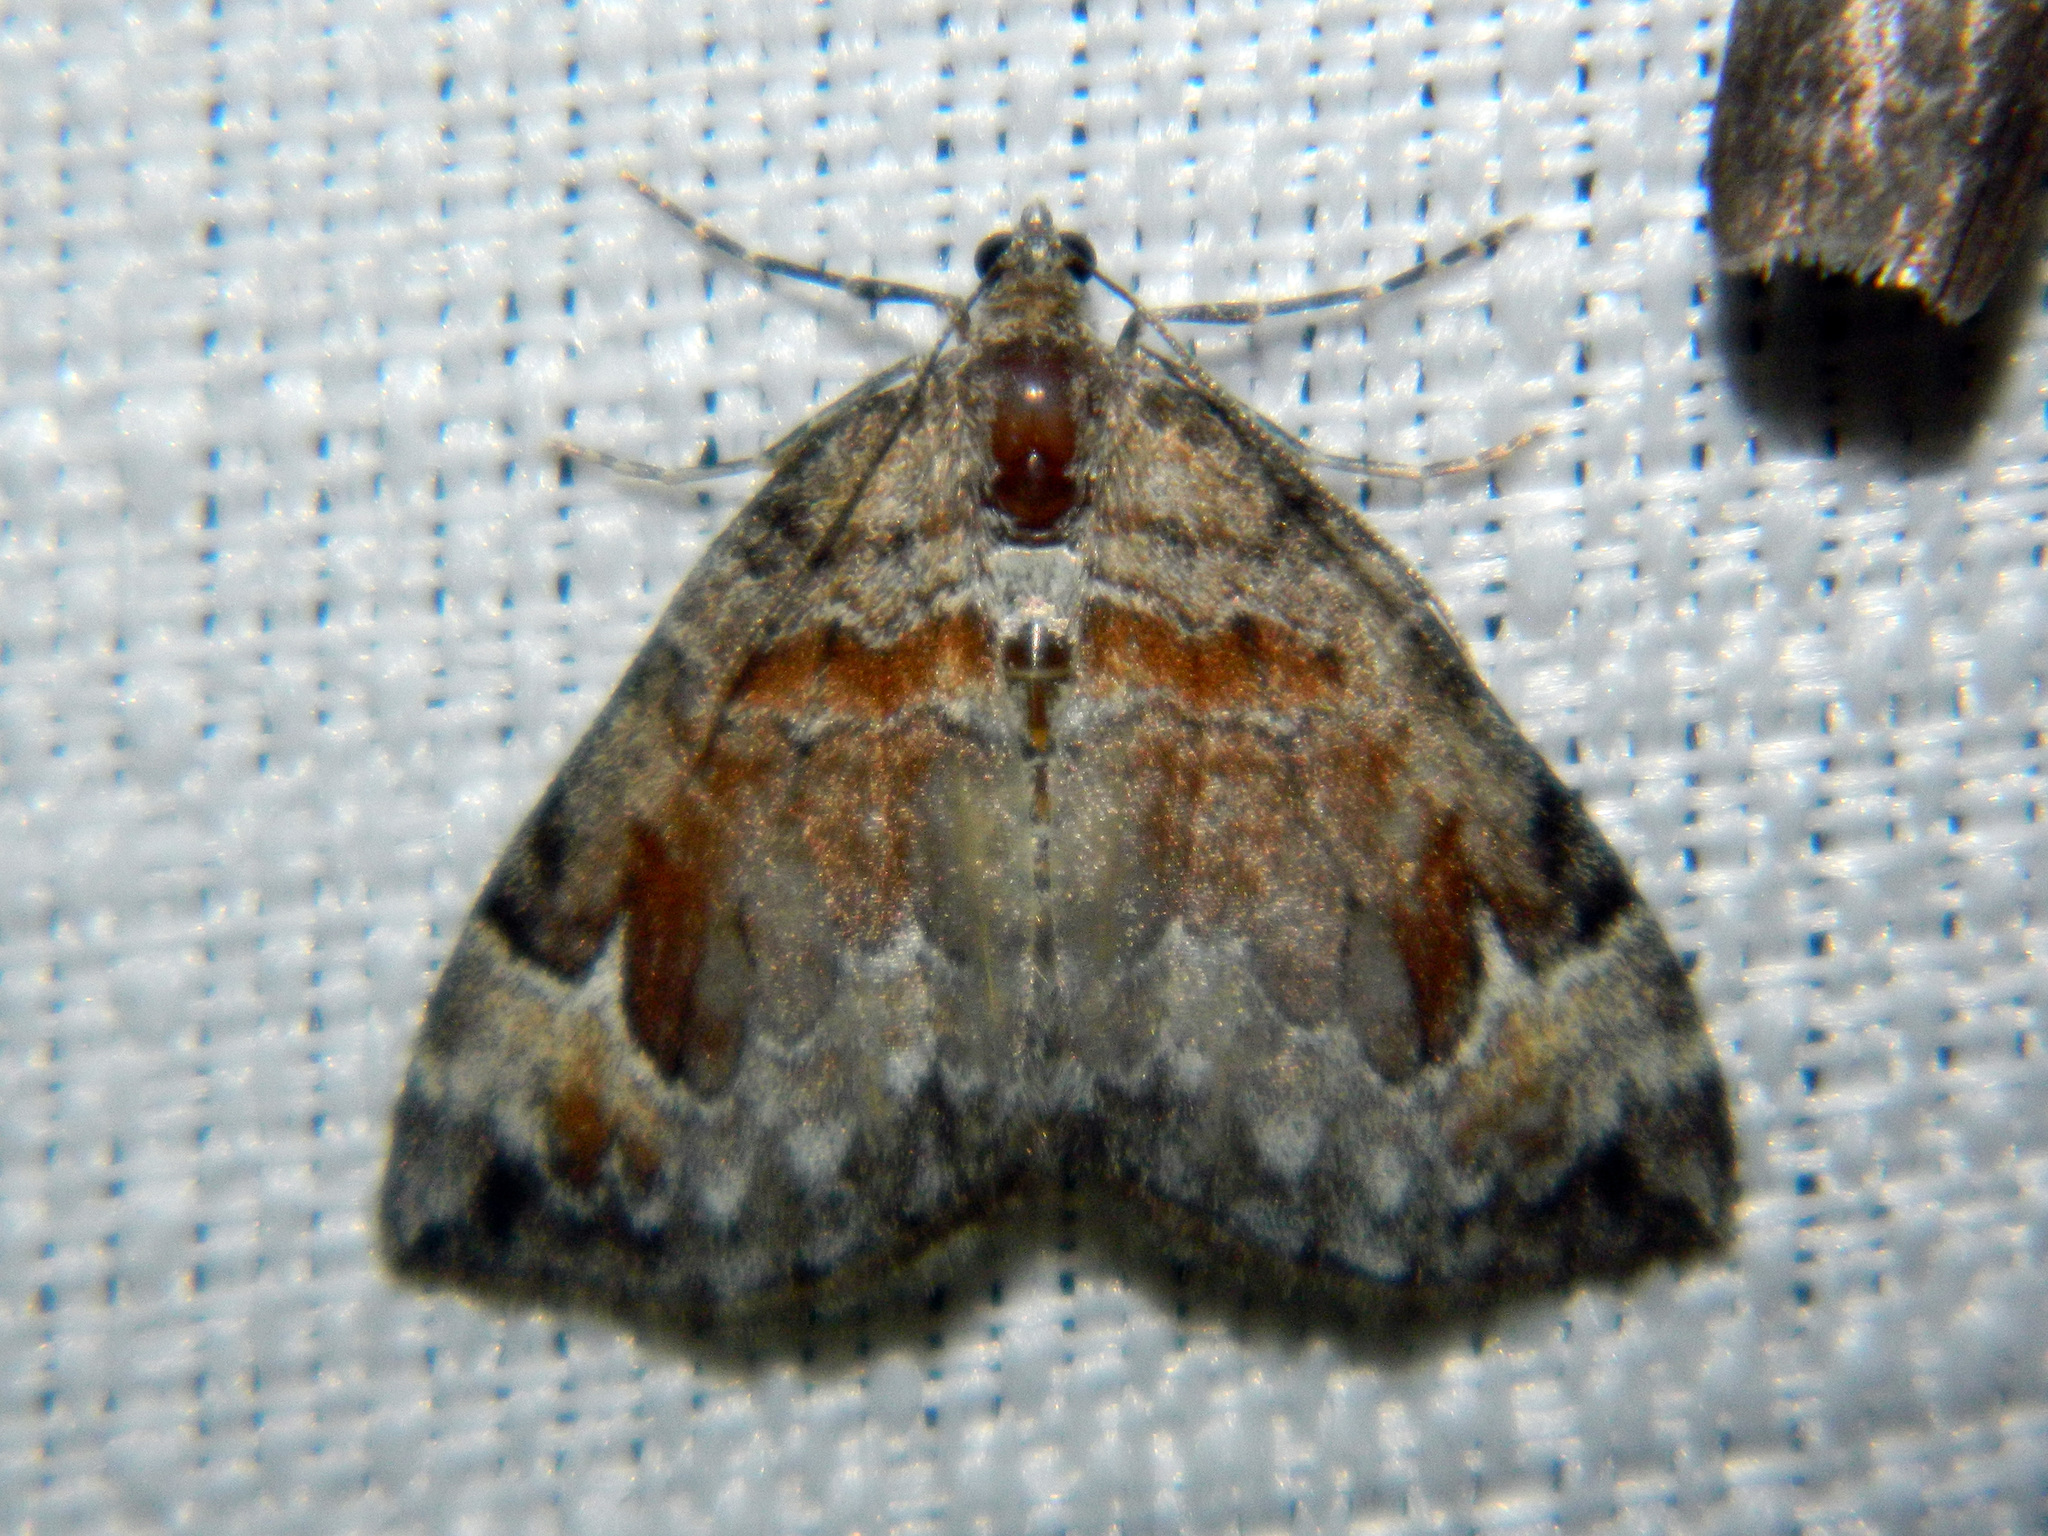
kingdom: Animalia
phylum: Arthropoda
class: Insecta
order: Lepidoptera
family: Geometridae
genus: Dysstroma
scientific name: Dysstroma hersiliata
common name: Orange-barred carpet
